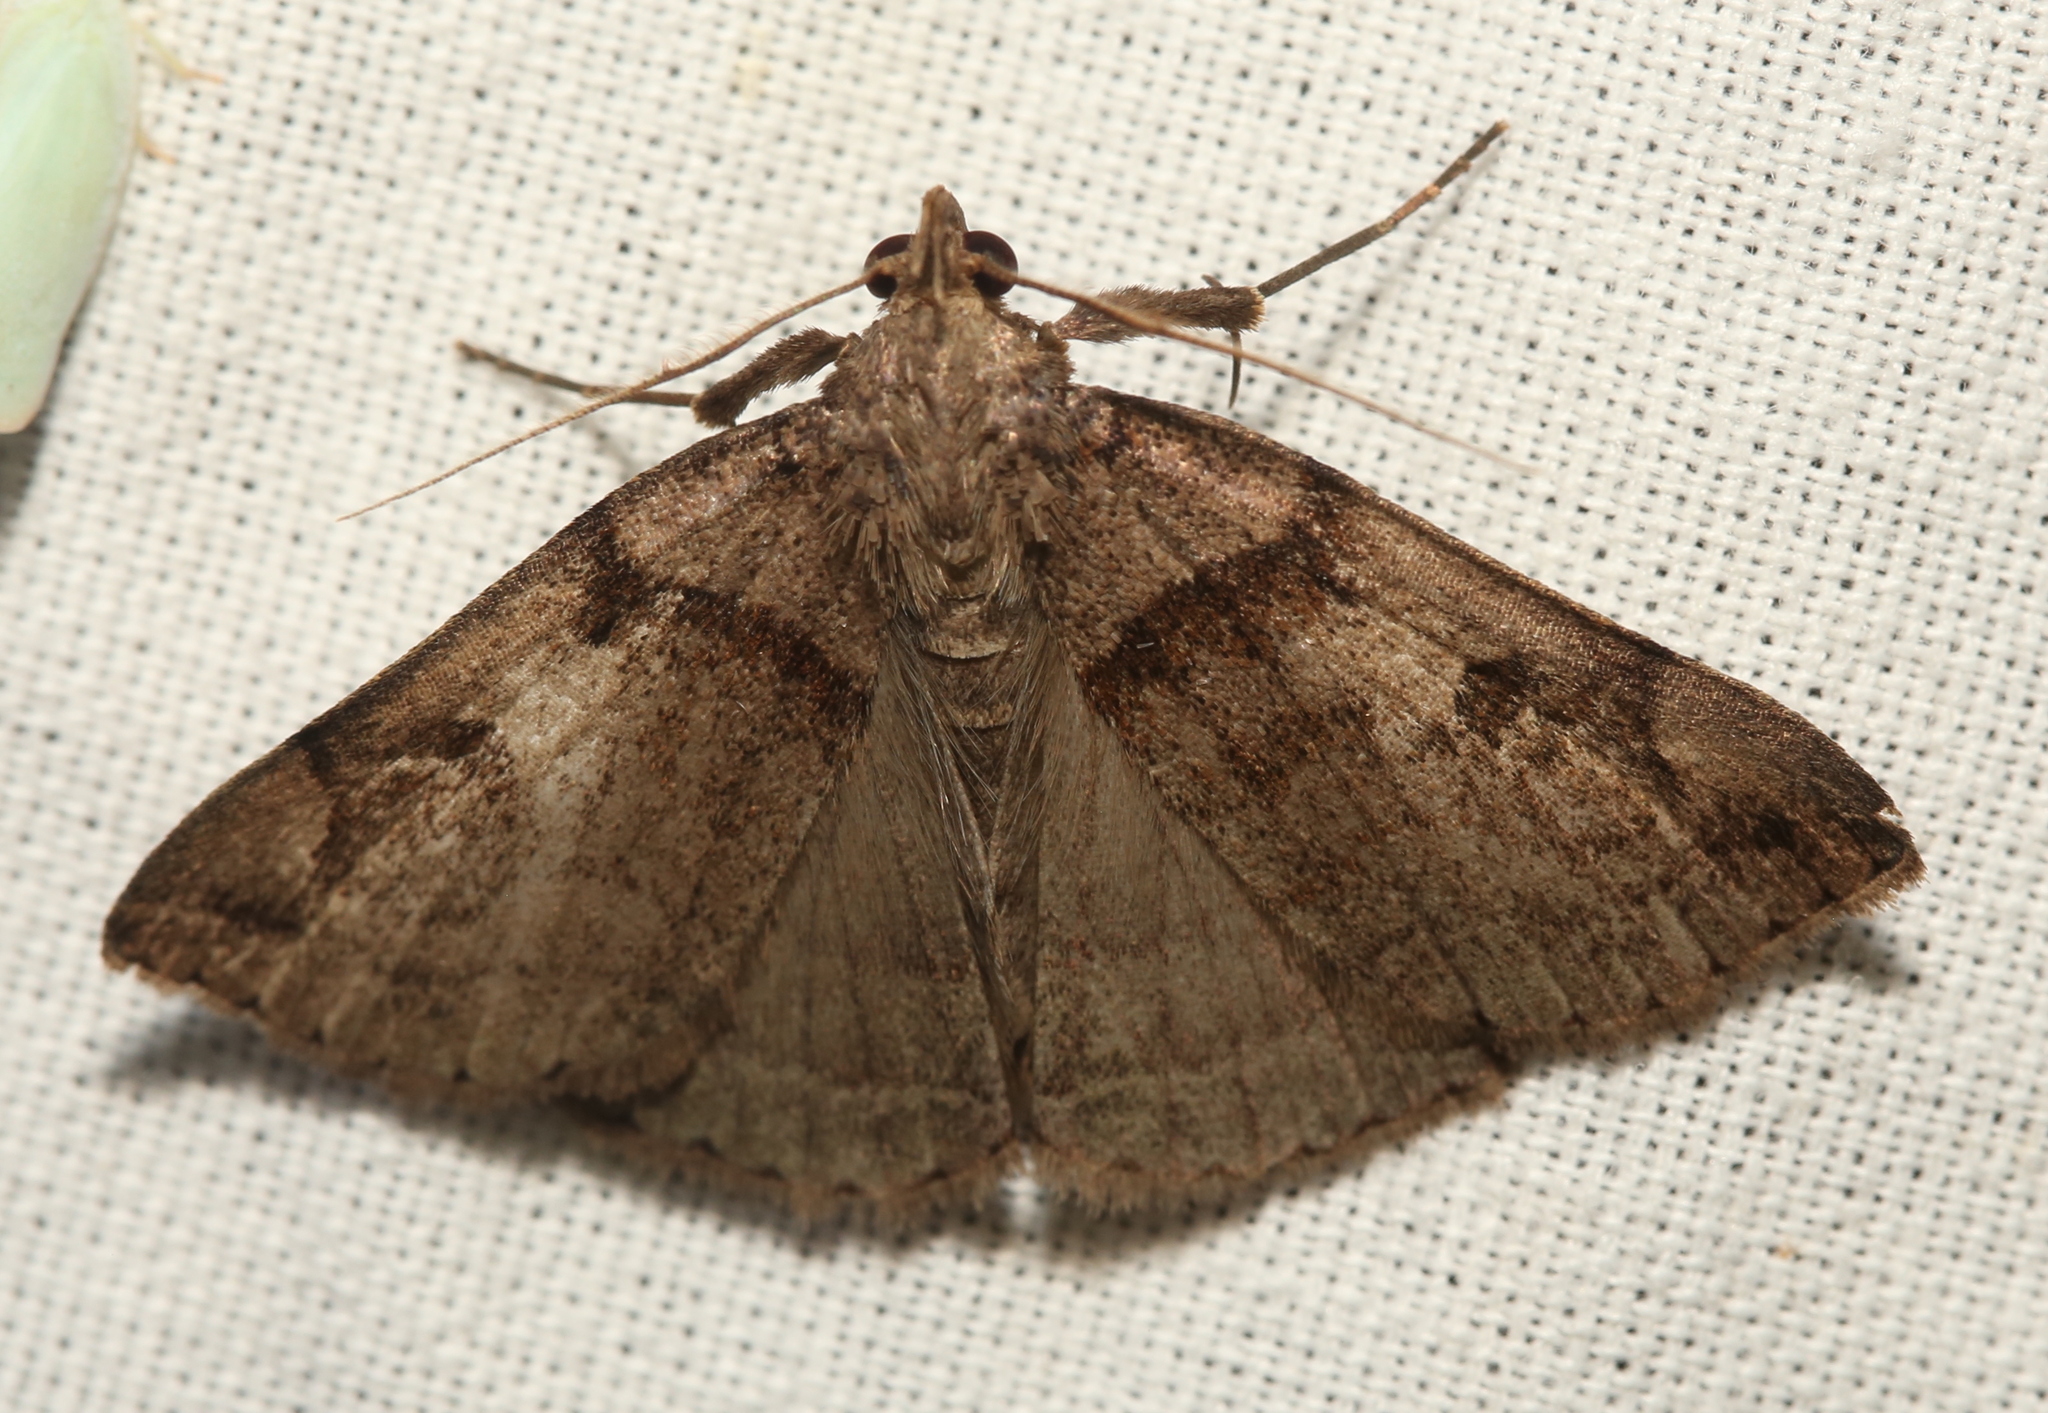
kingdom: Animalia
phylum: Arthropoda
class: Insecta
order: Lepidoptera
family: Erebidae
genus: Zanclognatha
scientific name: Zanclognatha laevigata
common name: Variable fan-foot
